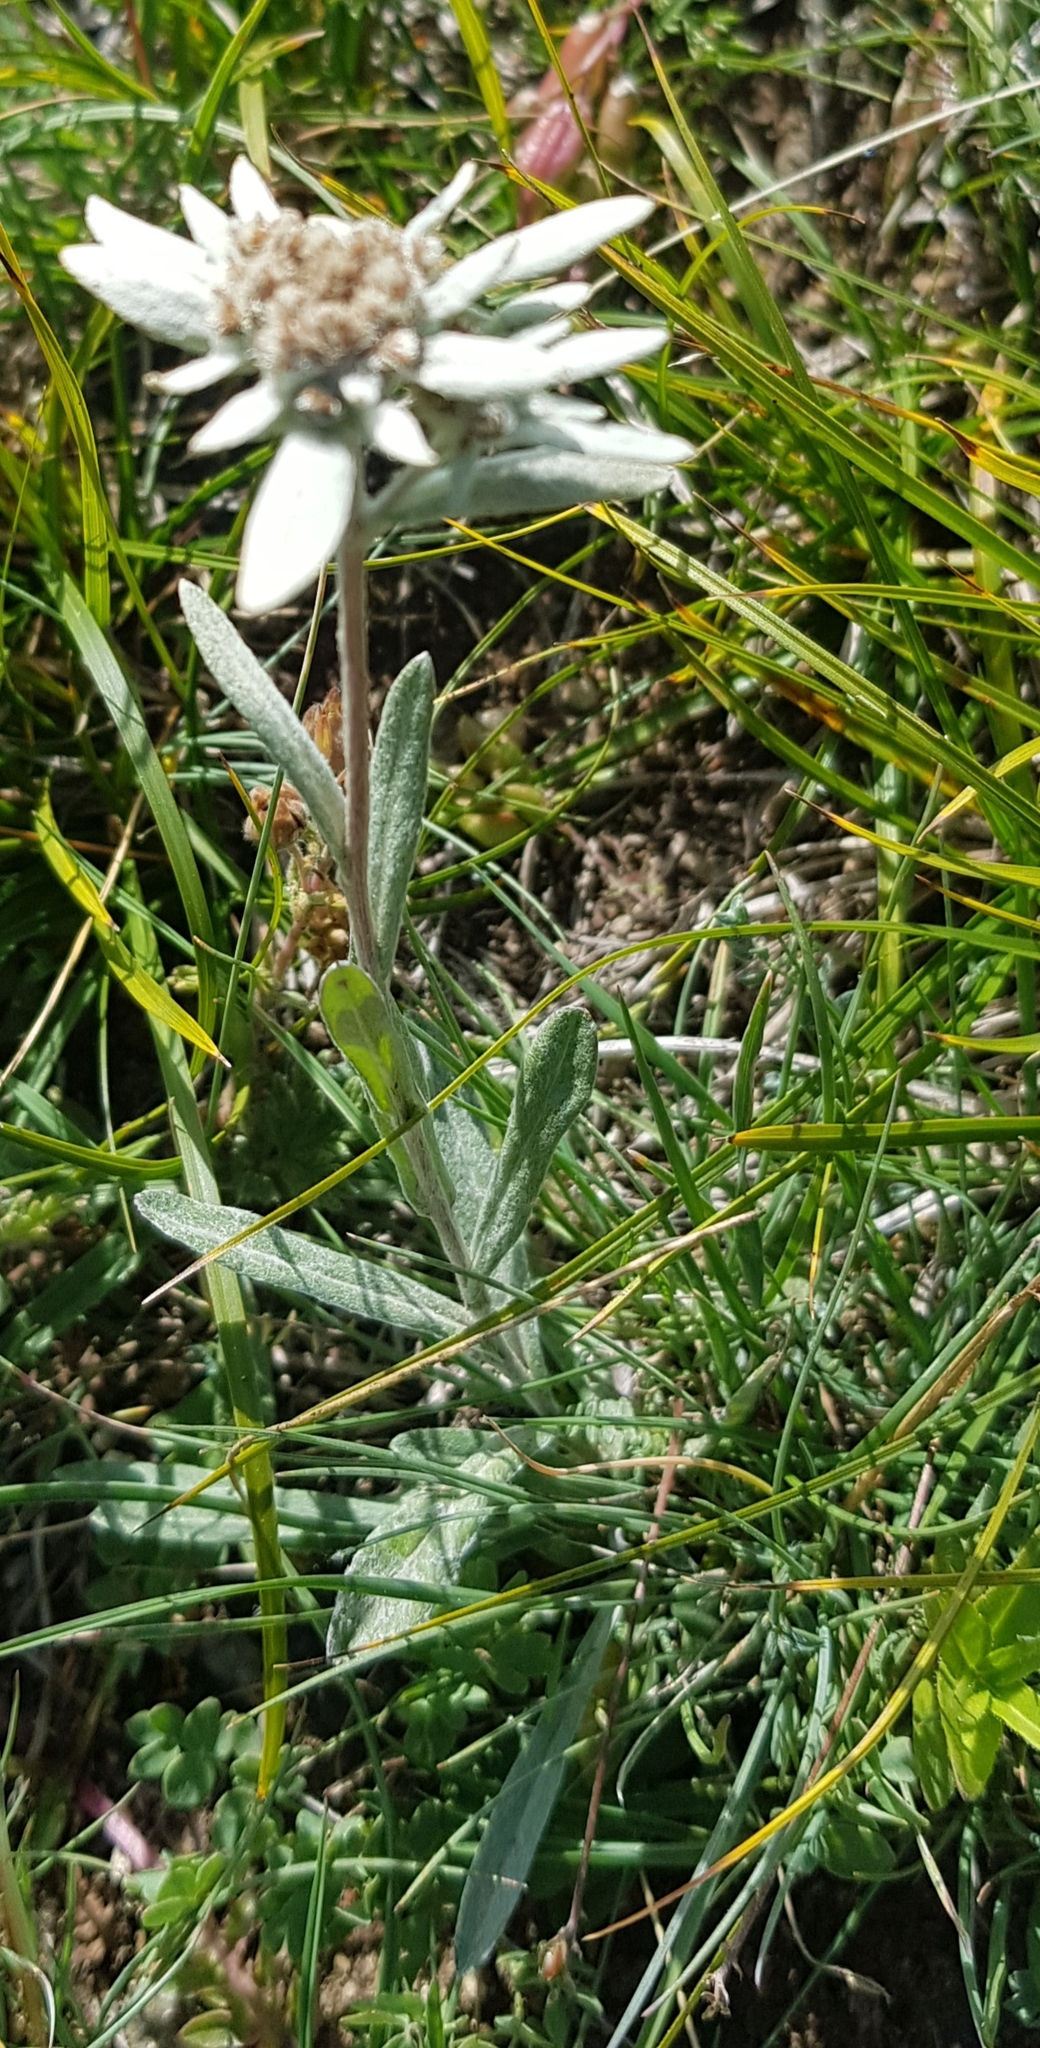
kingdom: Plantae
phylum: Tracheophyta
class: Magnoliopsida
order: Asterales
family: Asteraceae
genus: Leontopodium
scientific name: Leontopodium leontopodioides
